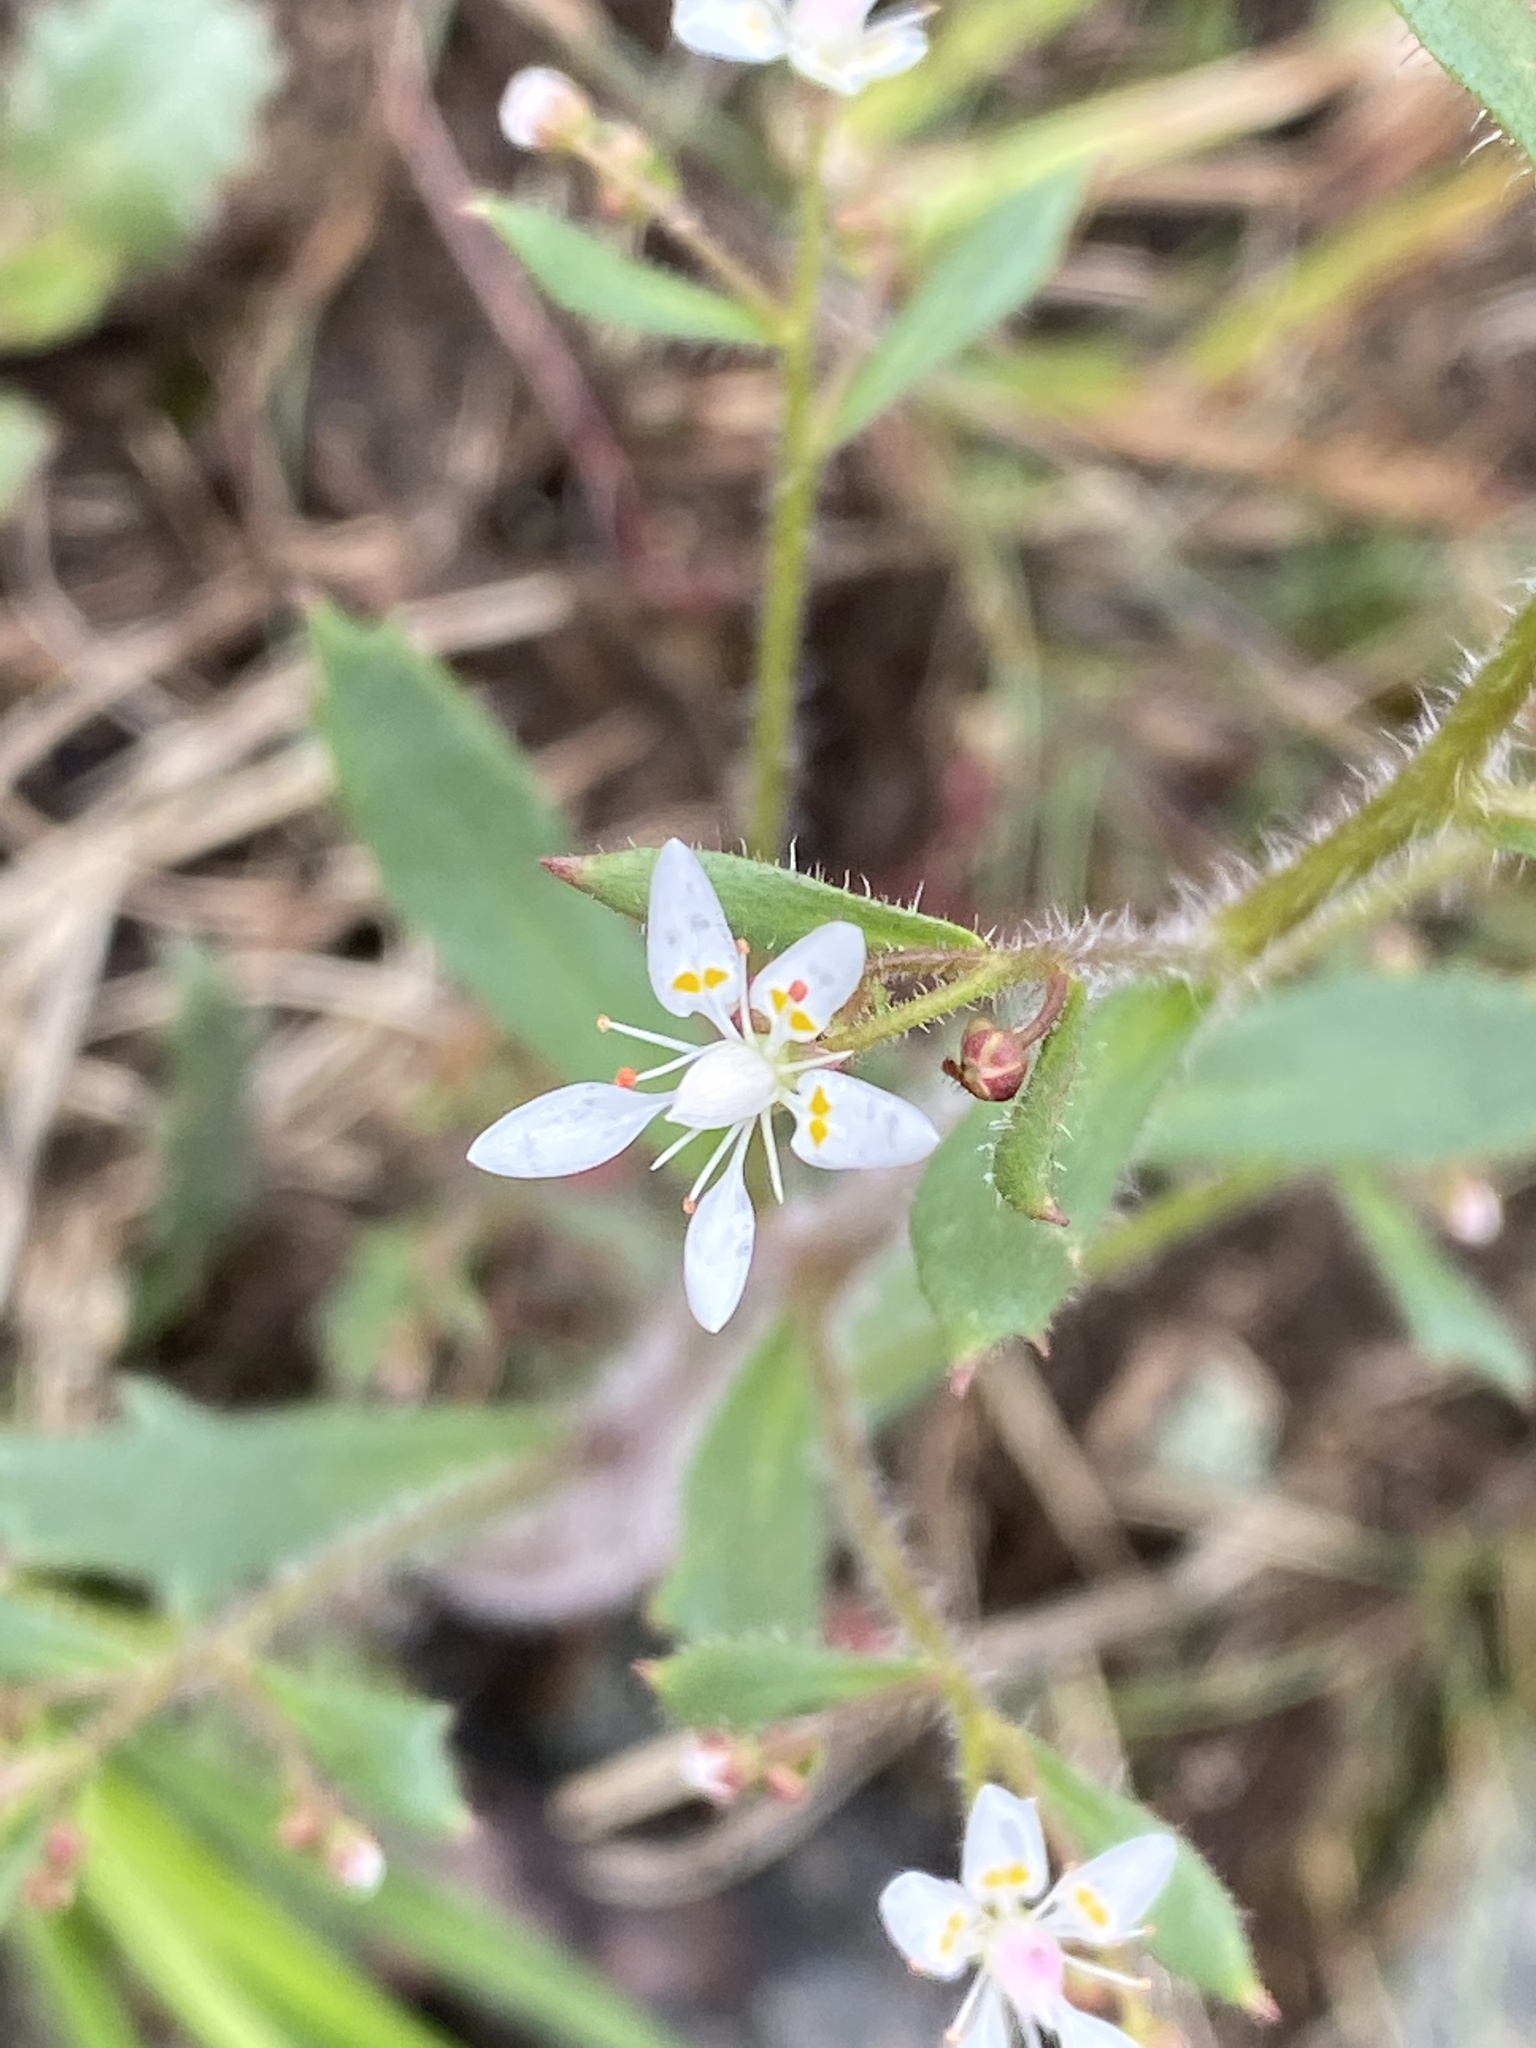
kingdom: Plantae
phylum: Tracheophyta
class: Magnoliopsida
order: Saxifragales
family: Saxifragaceae
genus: Micranthes
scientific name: Micranthes petiolaris
